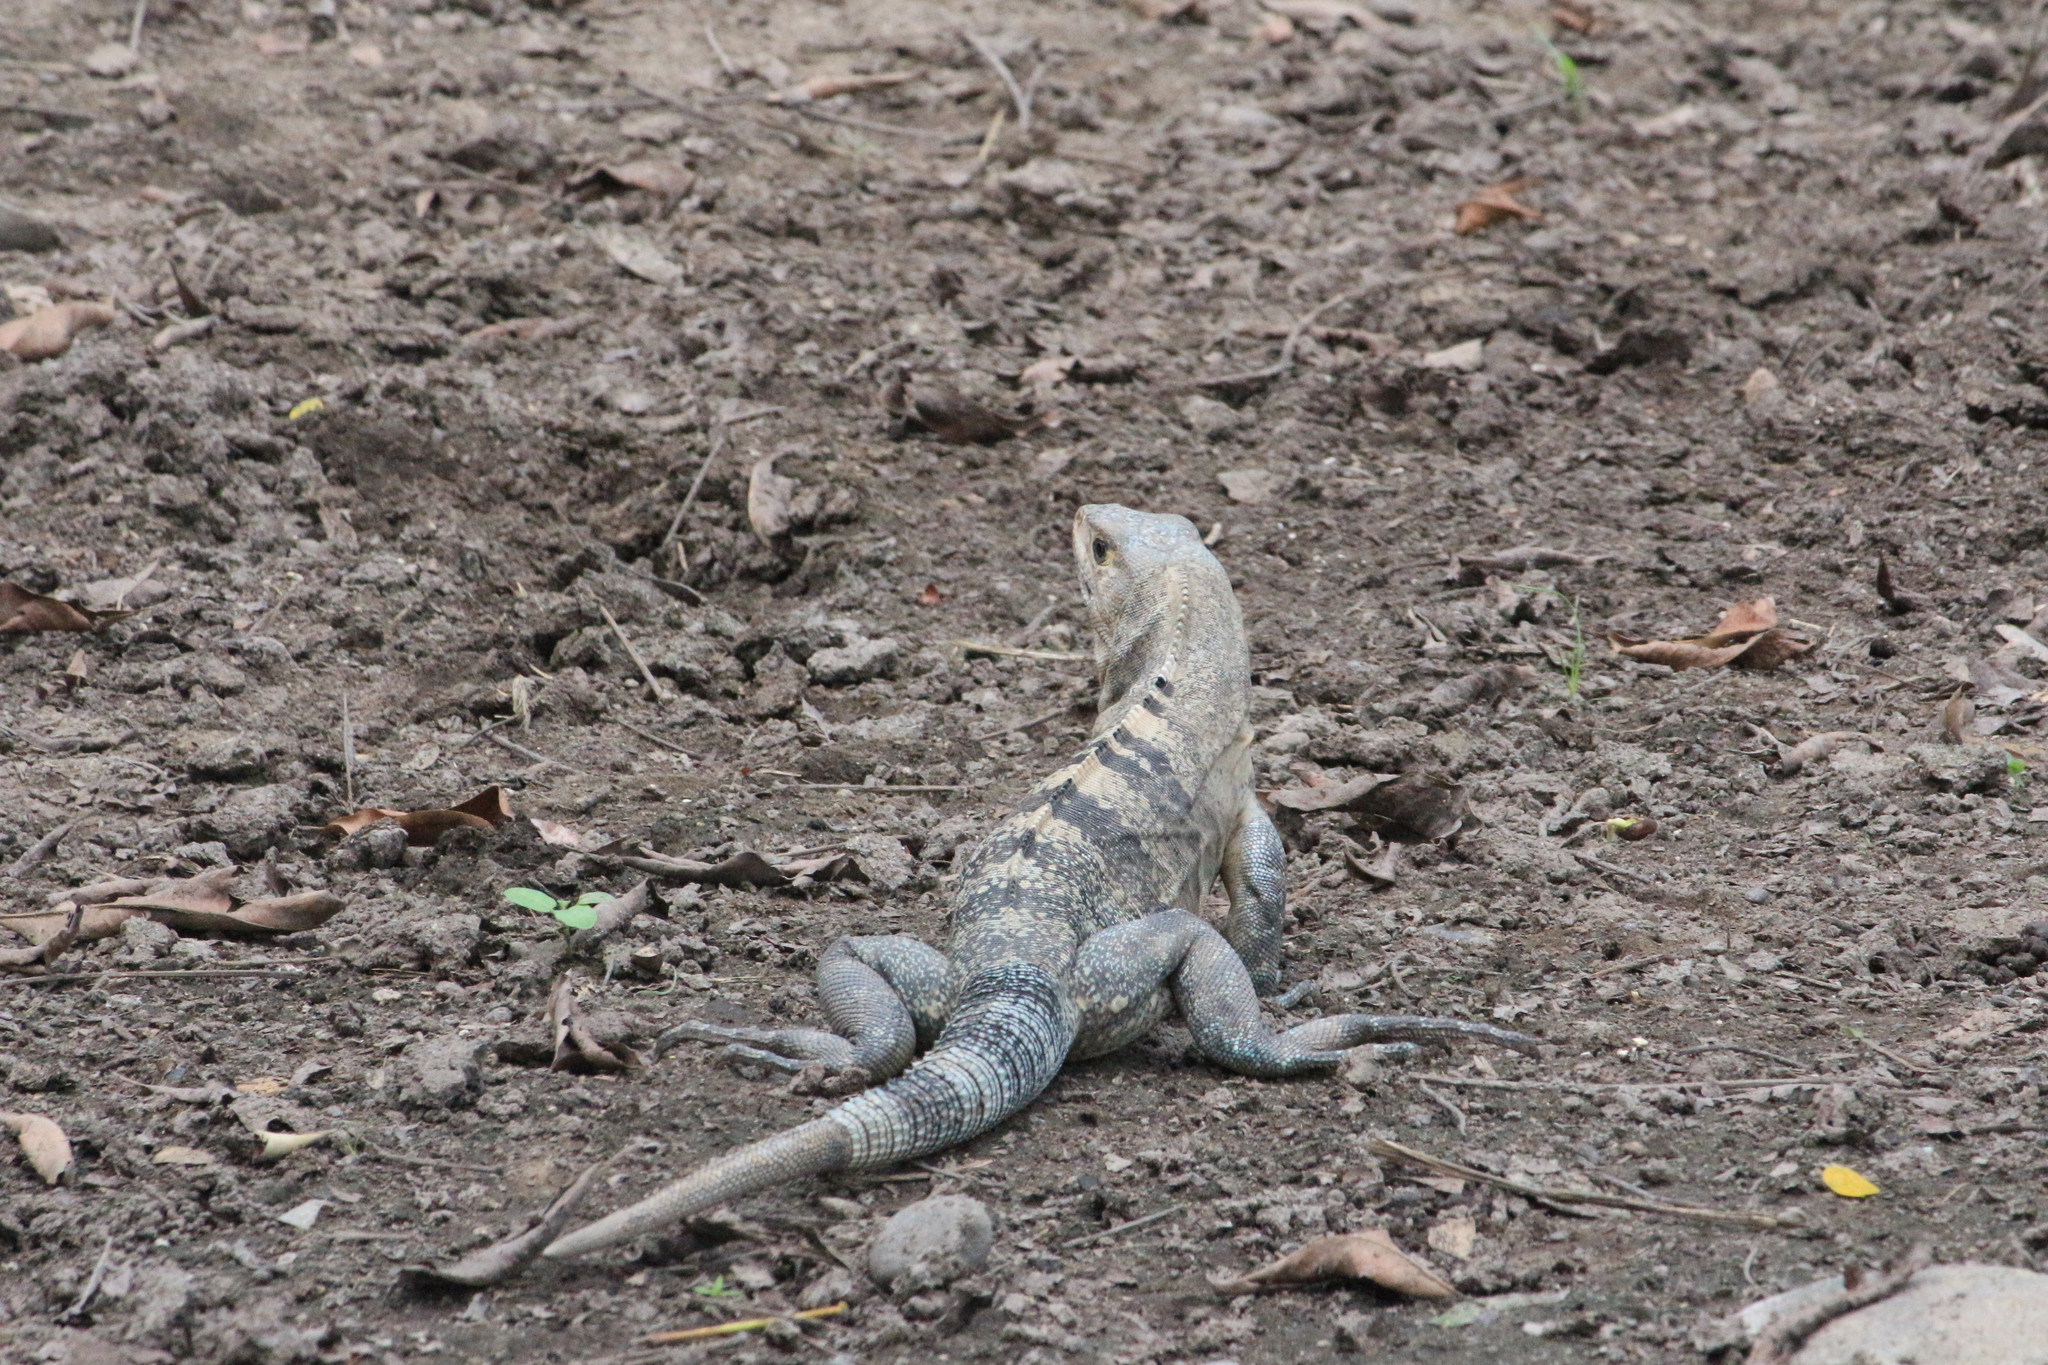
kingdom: Animalia
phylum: Chordata
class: Squamata
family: Iguanidae
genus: Ctenosaura
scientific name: Ctenosaura similis
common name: Black spiny-tailed iguana
